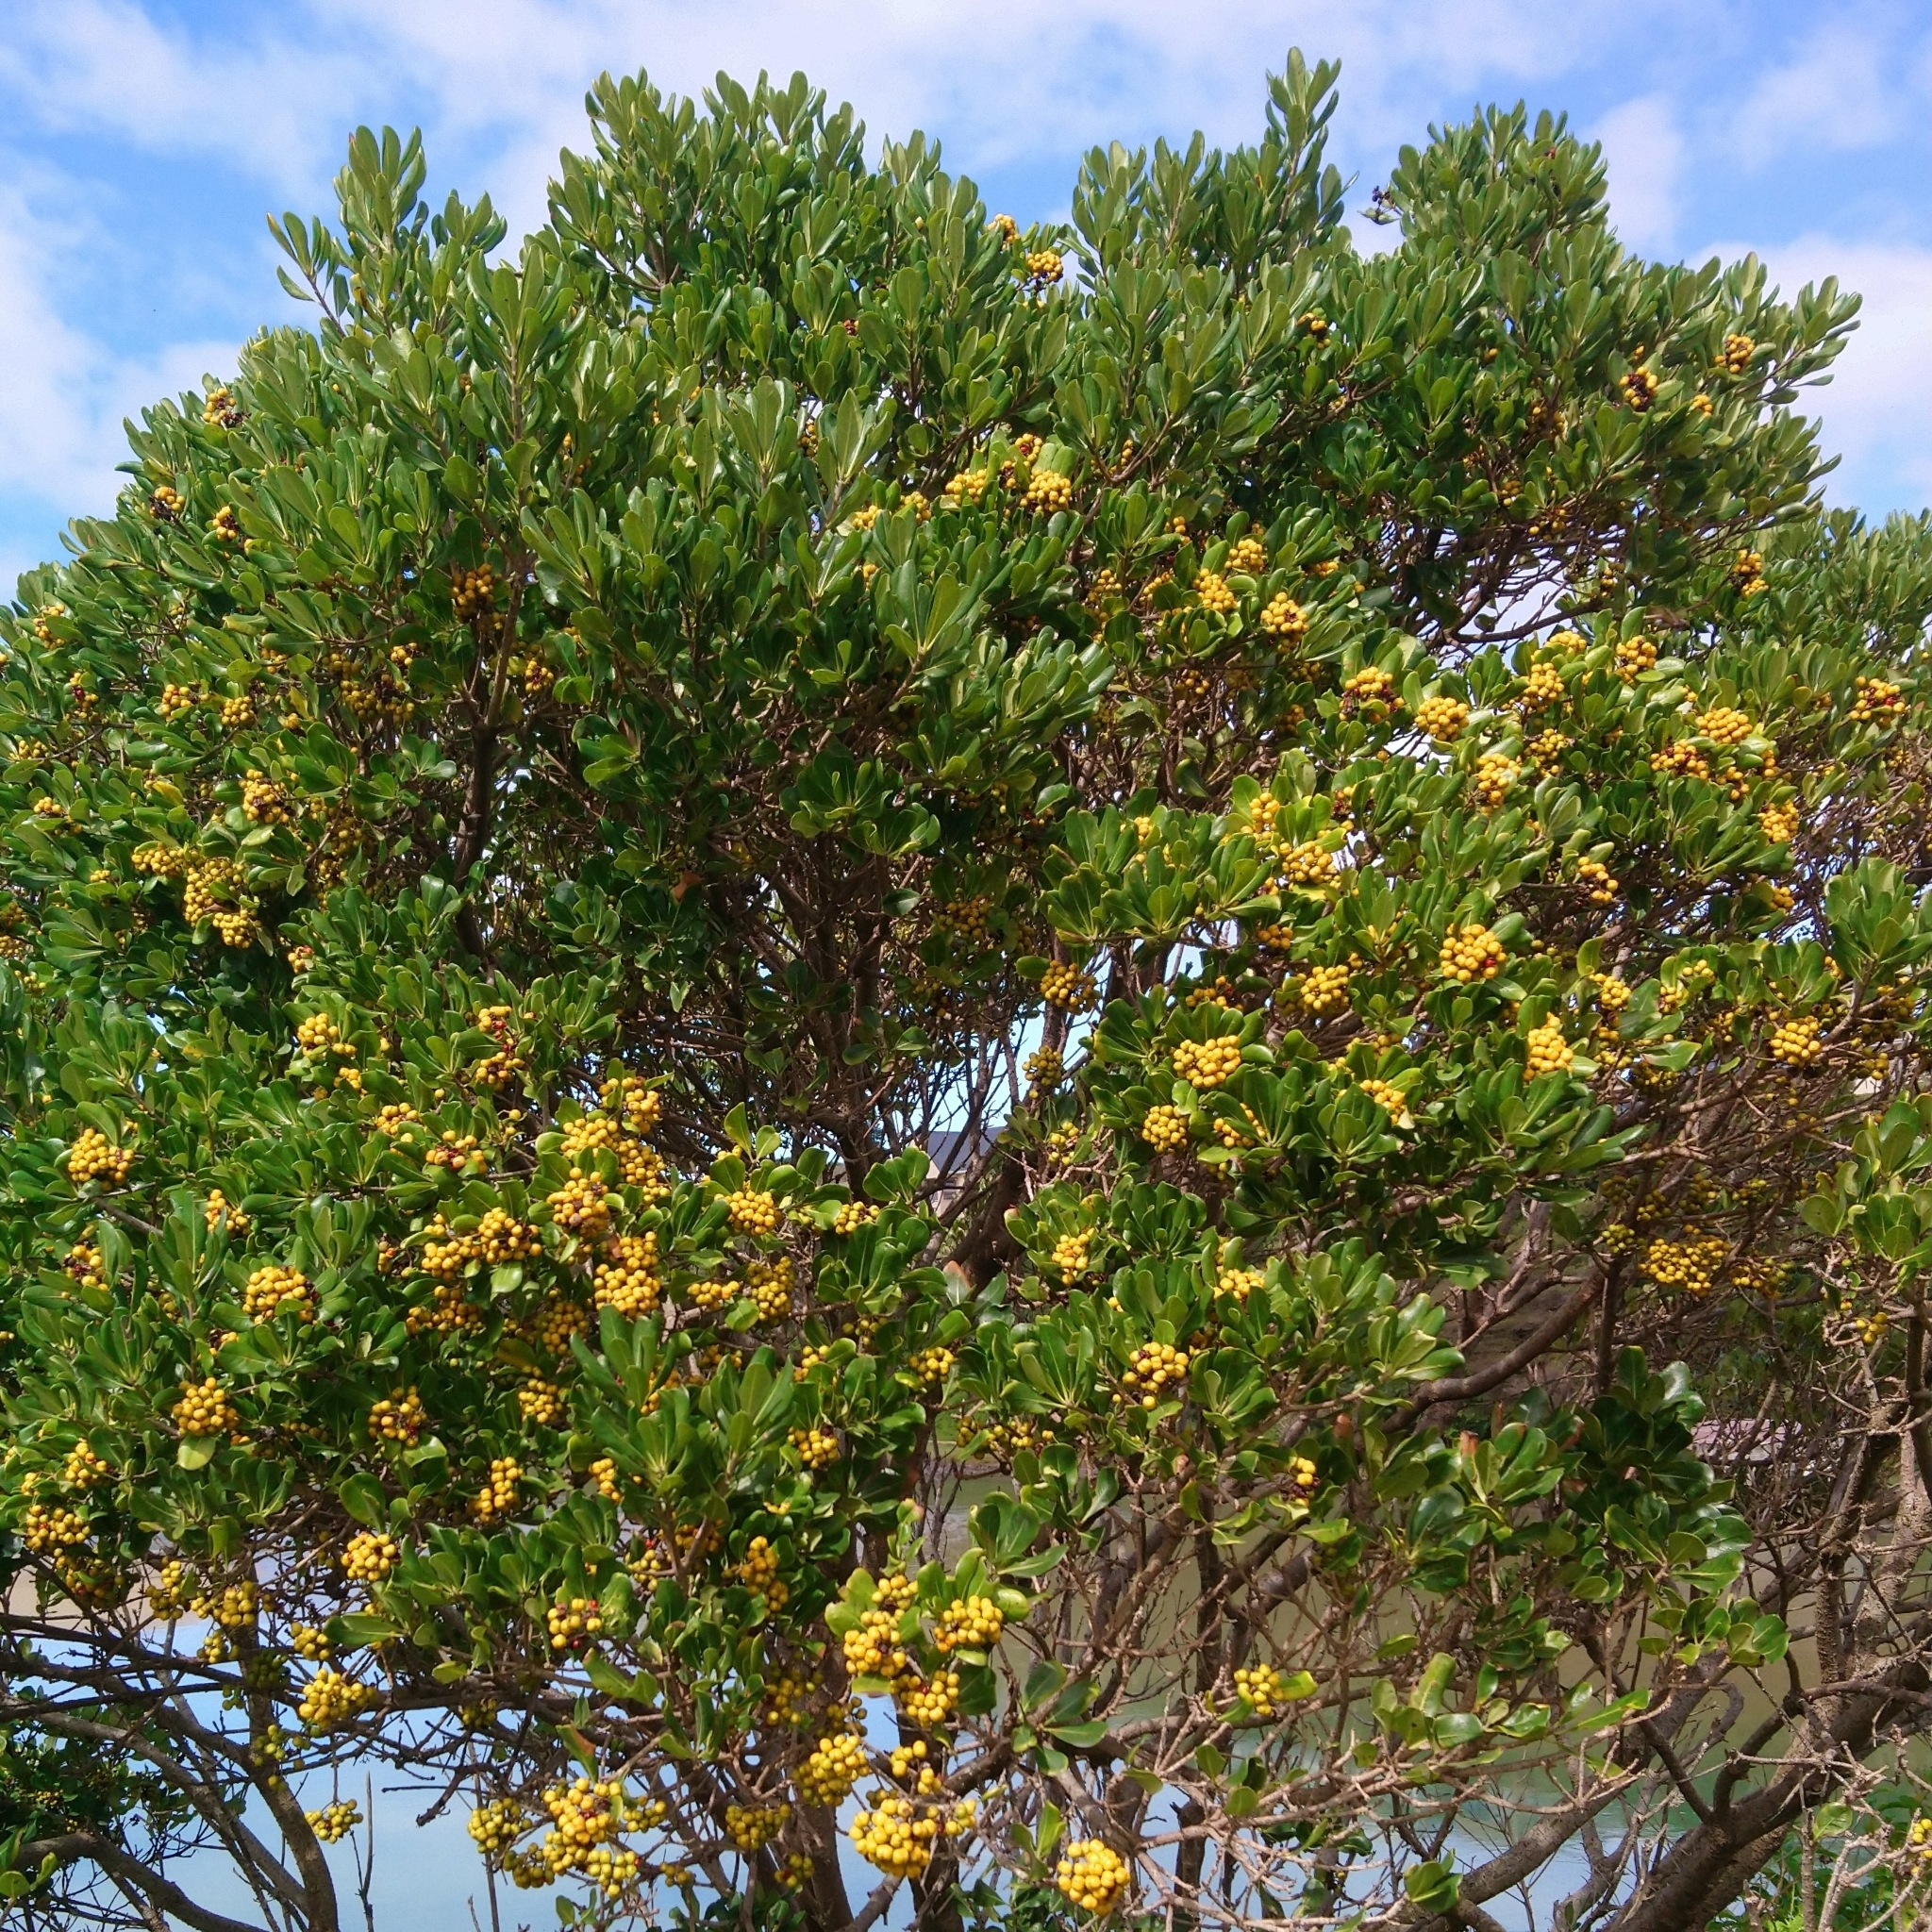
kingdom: Plantae
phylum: Tracheophyta
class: Magnoliopsida
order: Apiales
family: Pittosporaceae
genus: Pittosporum
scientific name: Pittosporum viridiflorum
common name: Cape cheesewood
